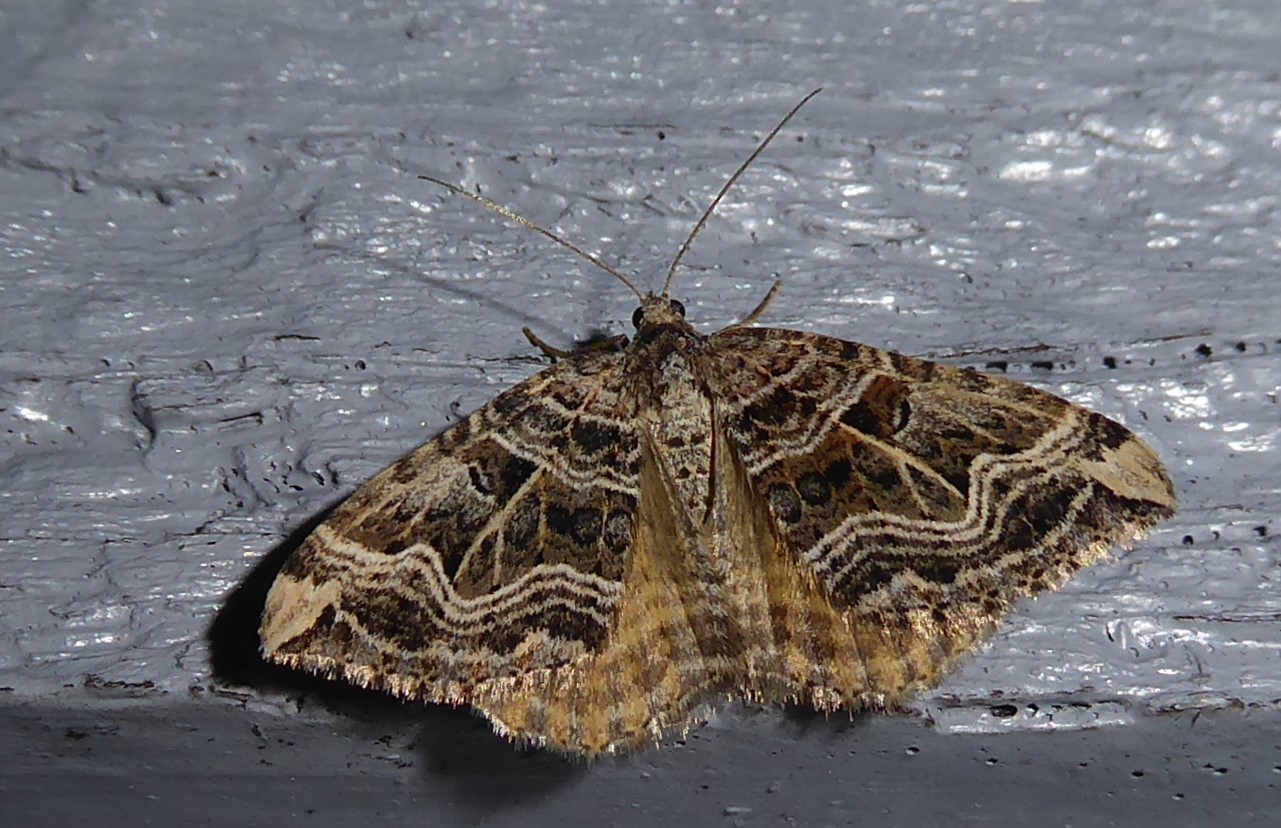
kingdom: Animalia
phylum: Arthropoda
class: Insecta
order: Lepidoptera
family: Geometridae
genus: Xanthorhoe
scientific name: Xanthorhoe semifissata
